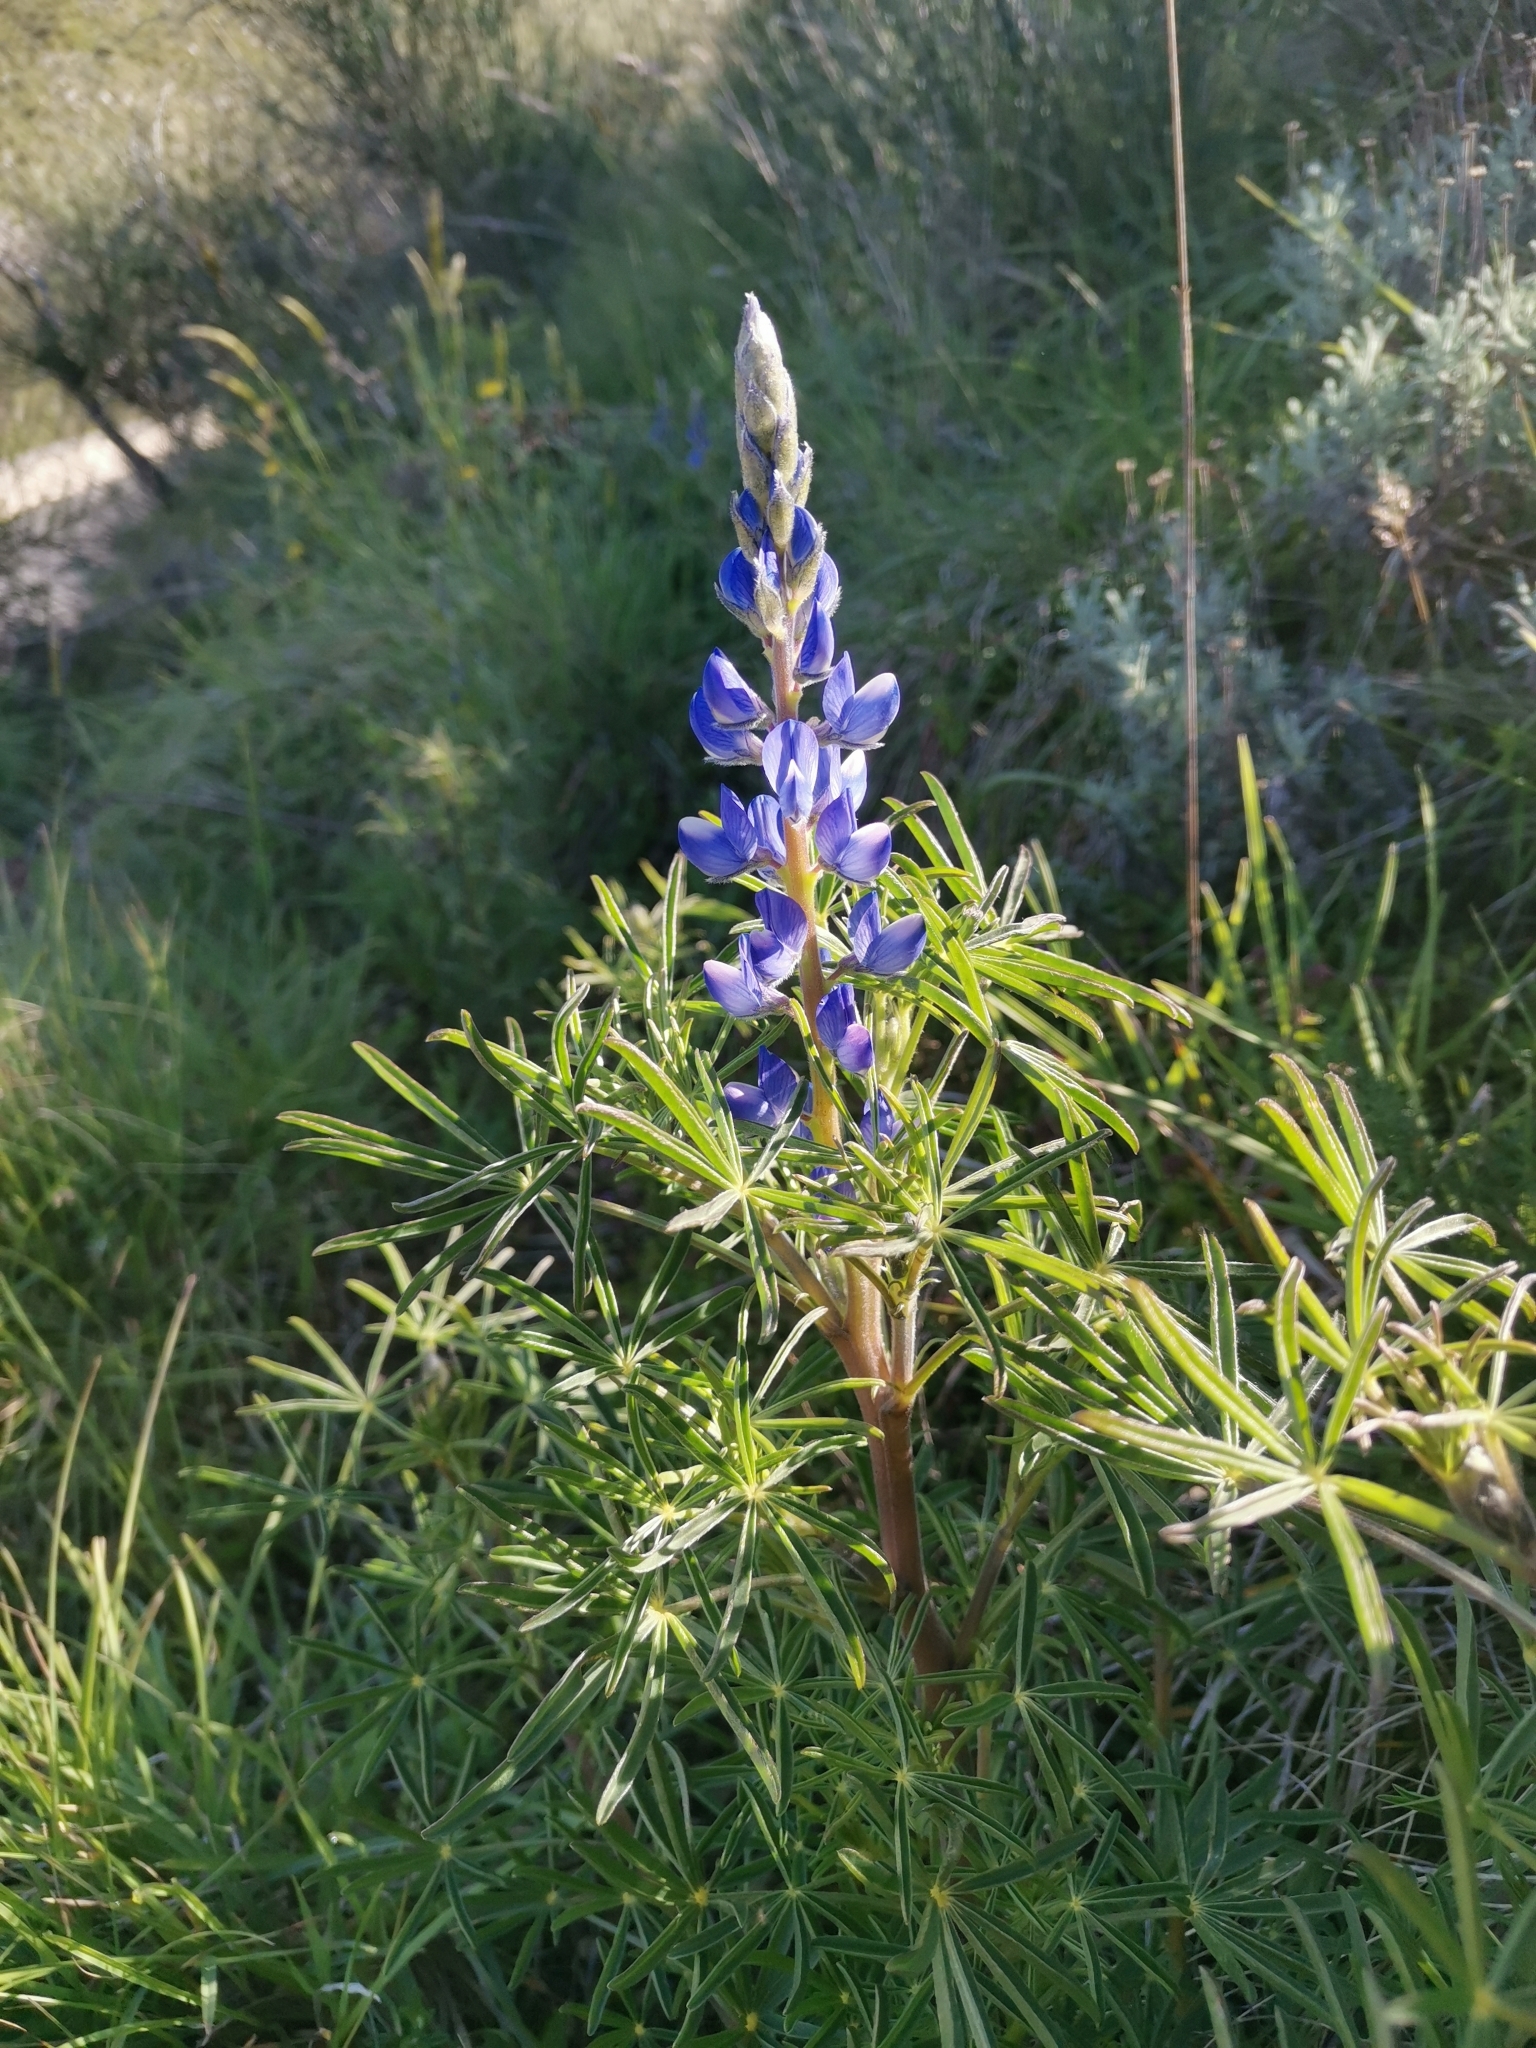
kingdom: Plantae
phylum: Tracheophyta
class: Magnoliopsida
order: Fabales
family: Fabaceae
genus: Lupinus
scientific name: Lupinus angustifolius
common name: Narrow-leaved lupin
